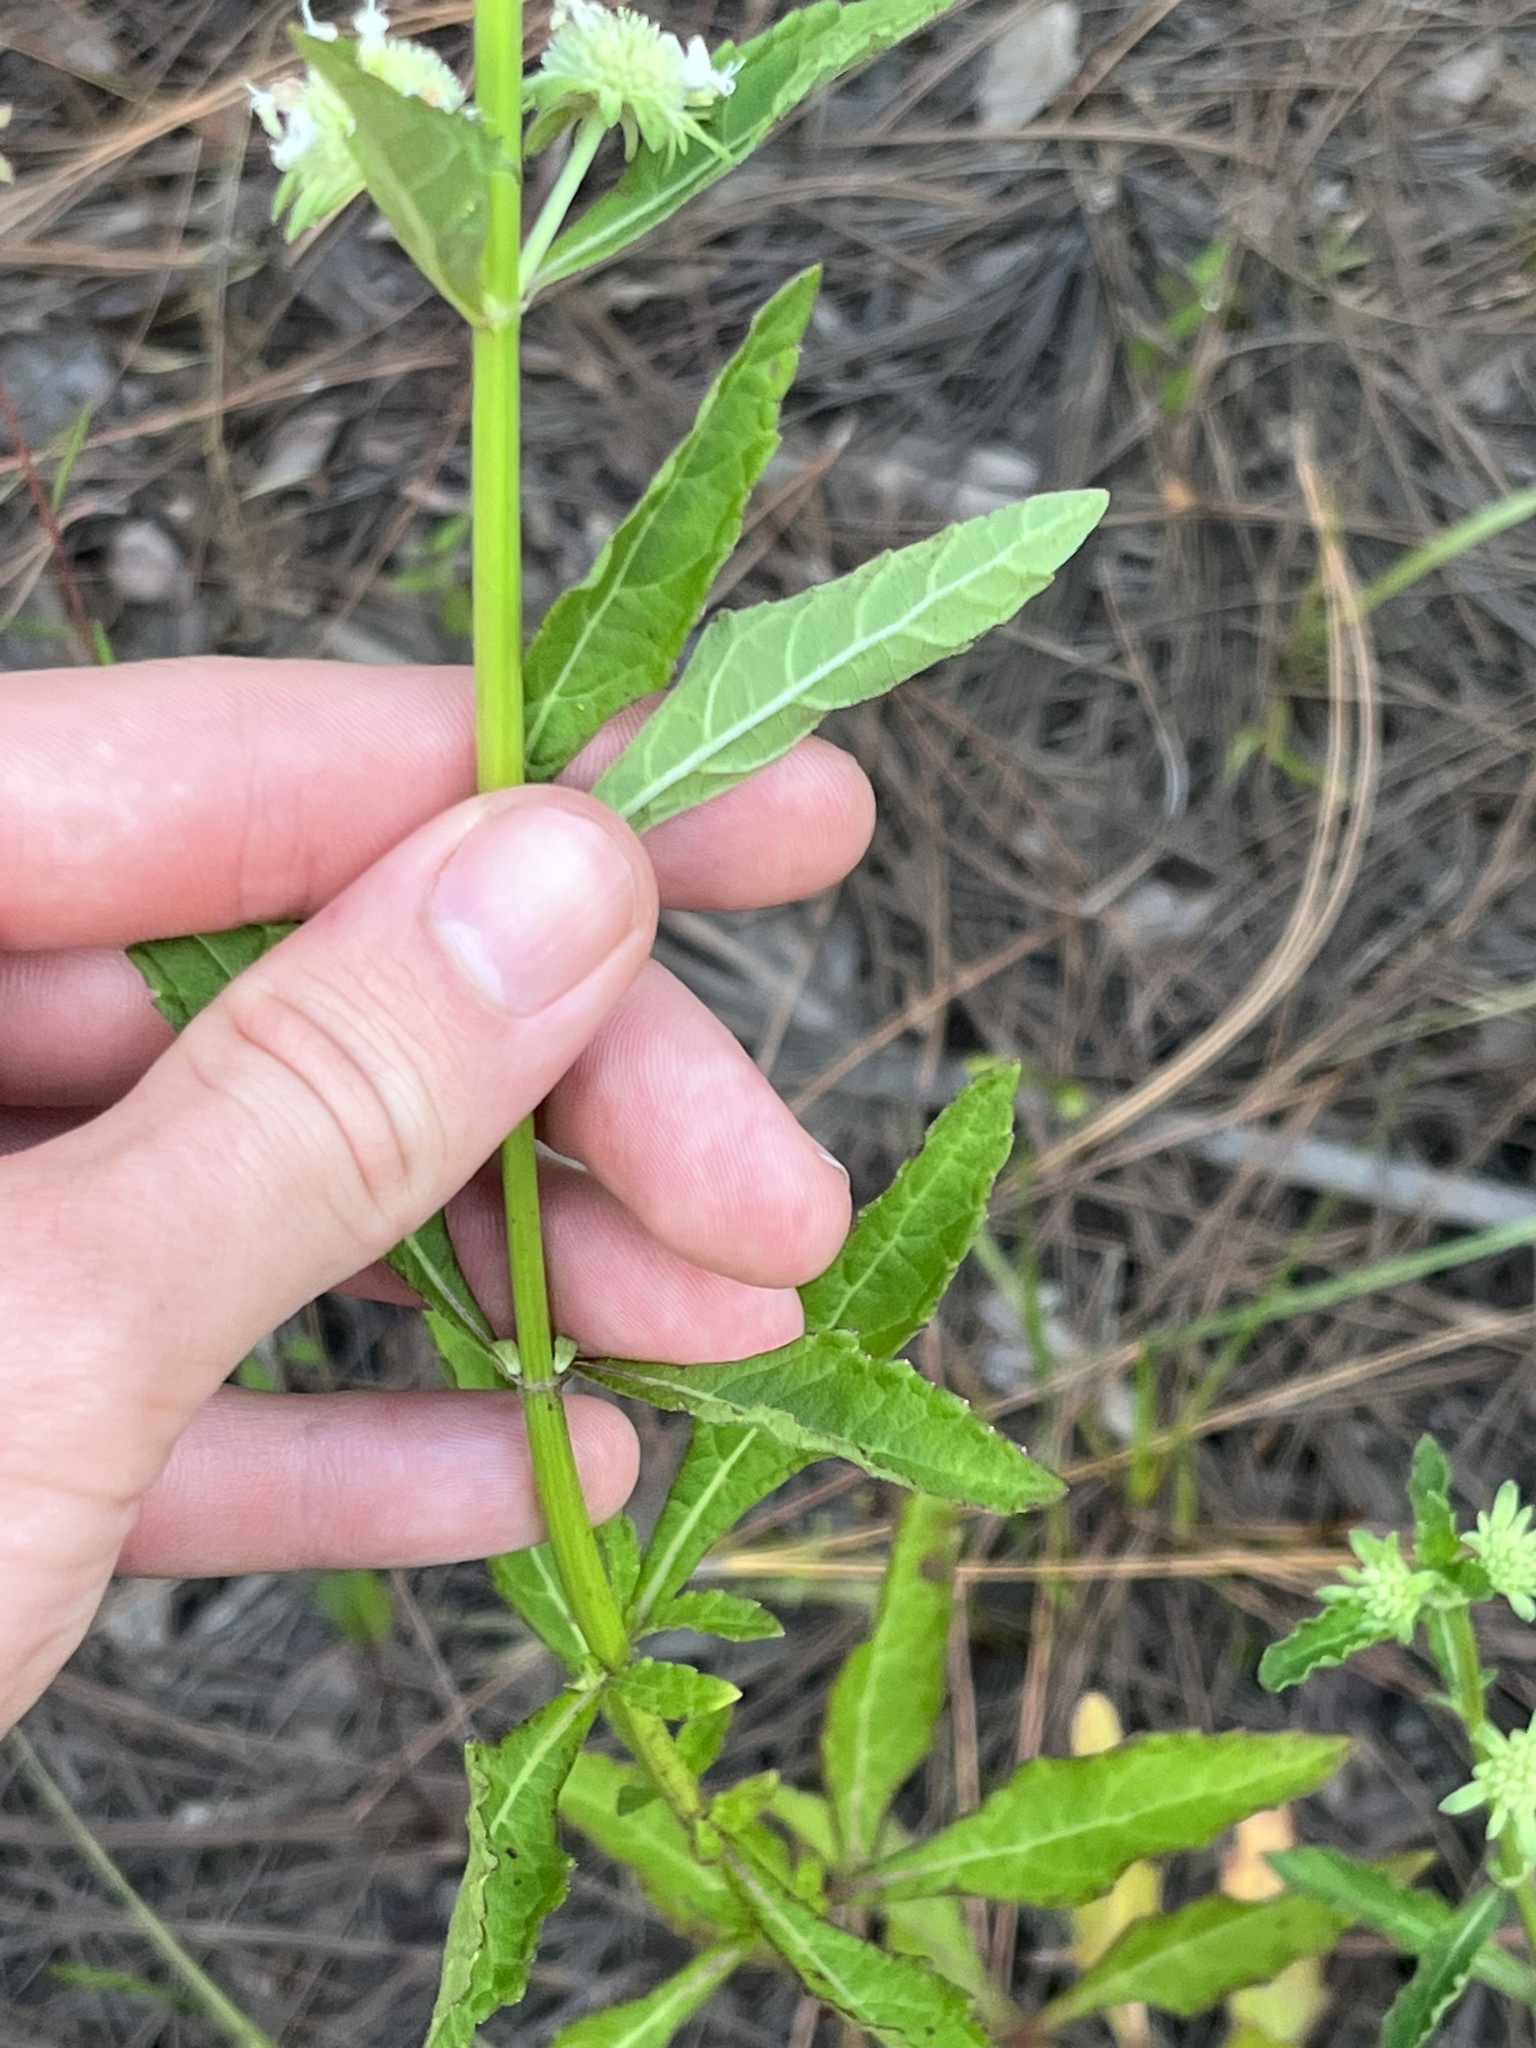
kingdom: Plantae
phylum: Tracheophyta
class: Magnoliopsida
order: Lamiales
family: Lamiaceae
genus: Hyptis
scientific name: Hyptis alata
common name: Cluster bush-mint
